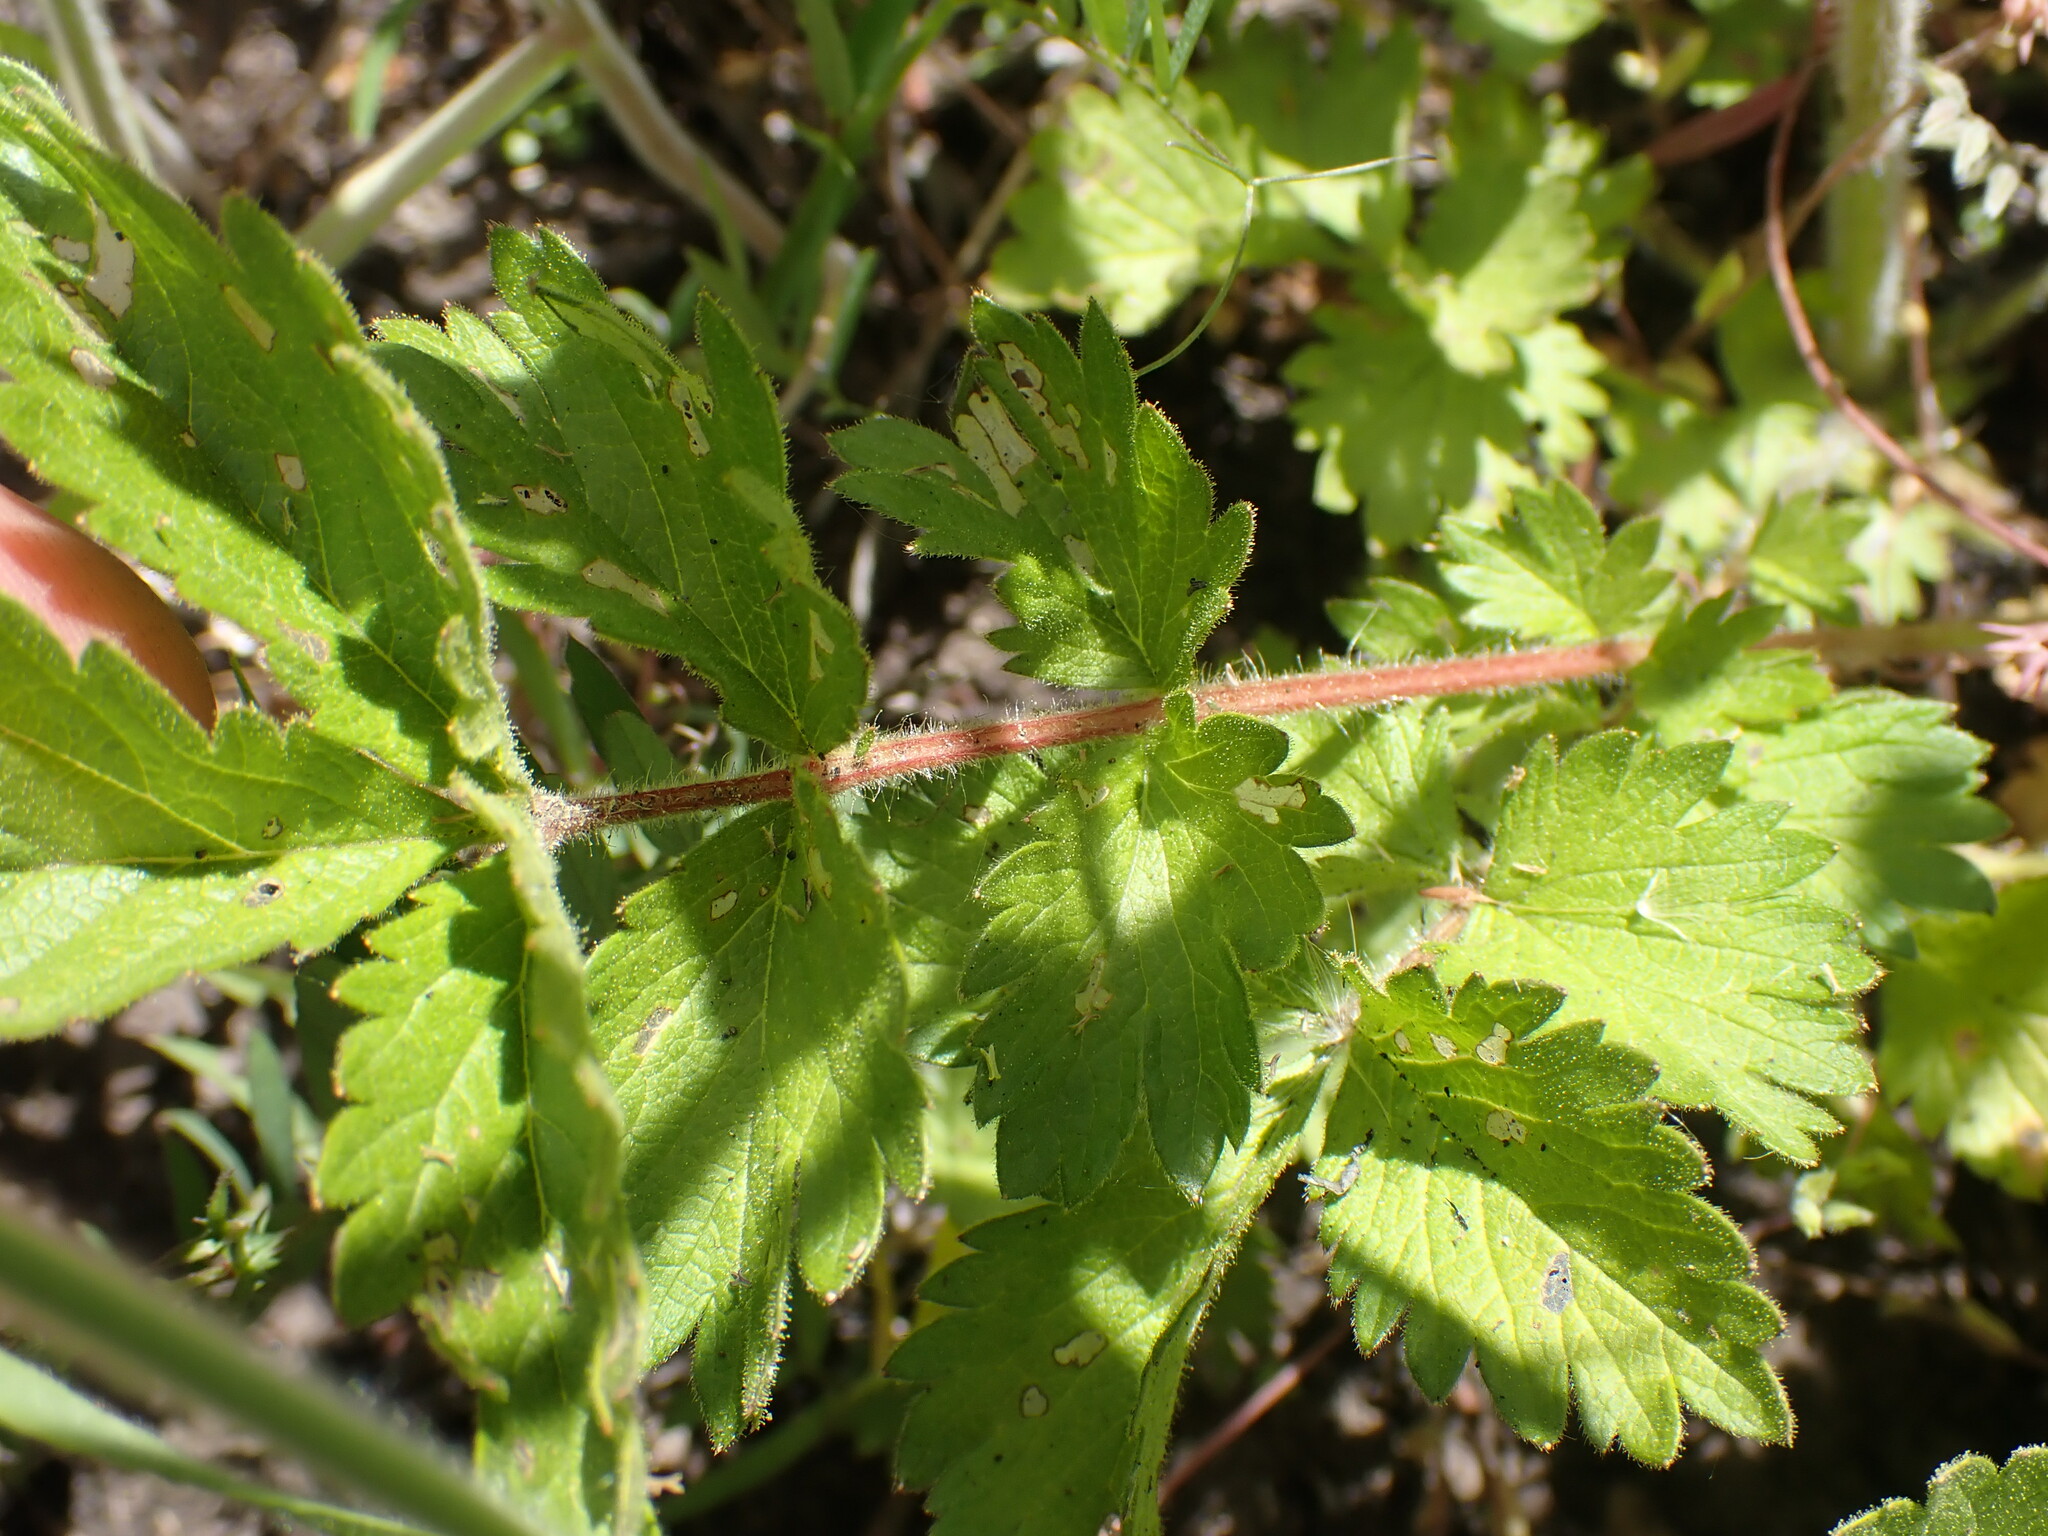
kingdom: Plantae
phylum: Tracheophyta
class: Magnoliopsida
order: Rosales
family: Rosaceae
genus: Drymocallis
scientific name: Drymocallis convallaria
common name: Cream cinquefoil
